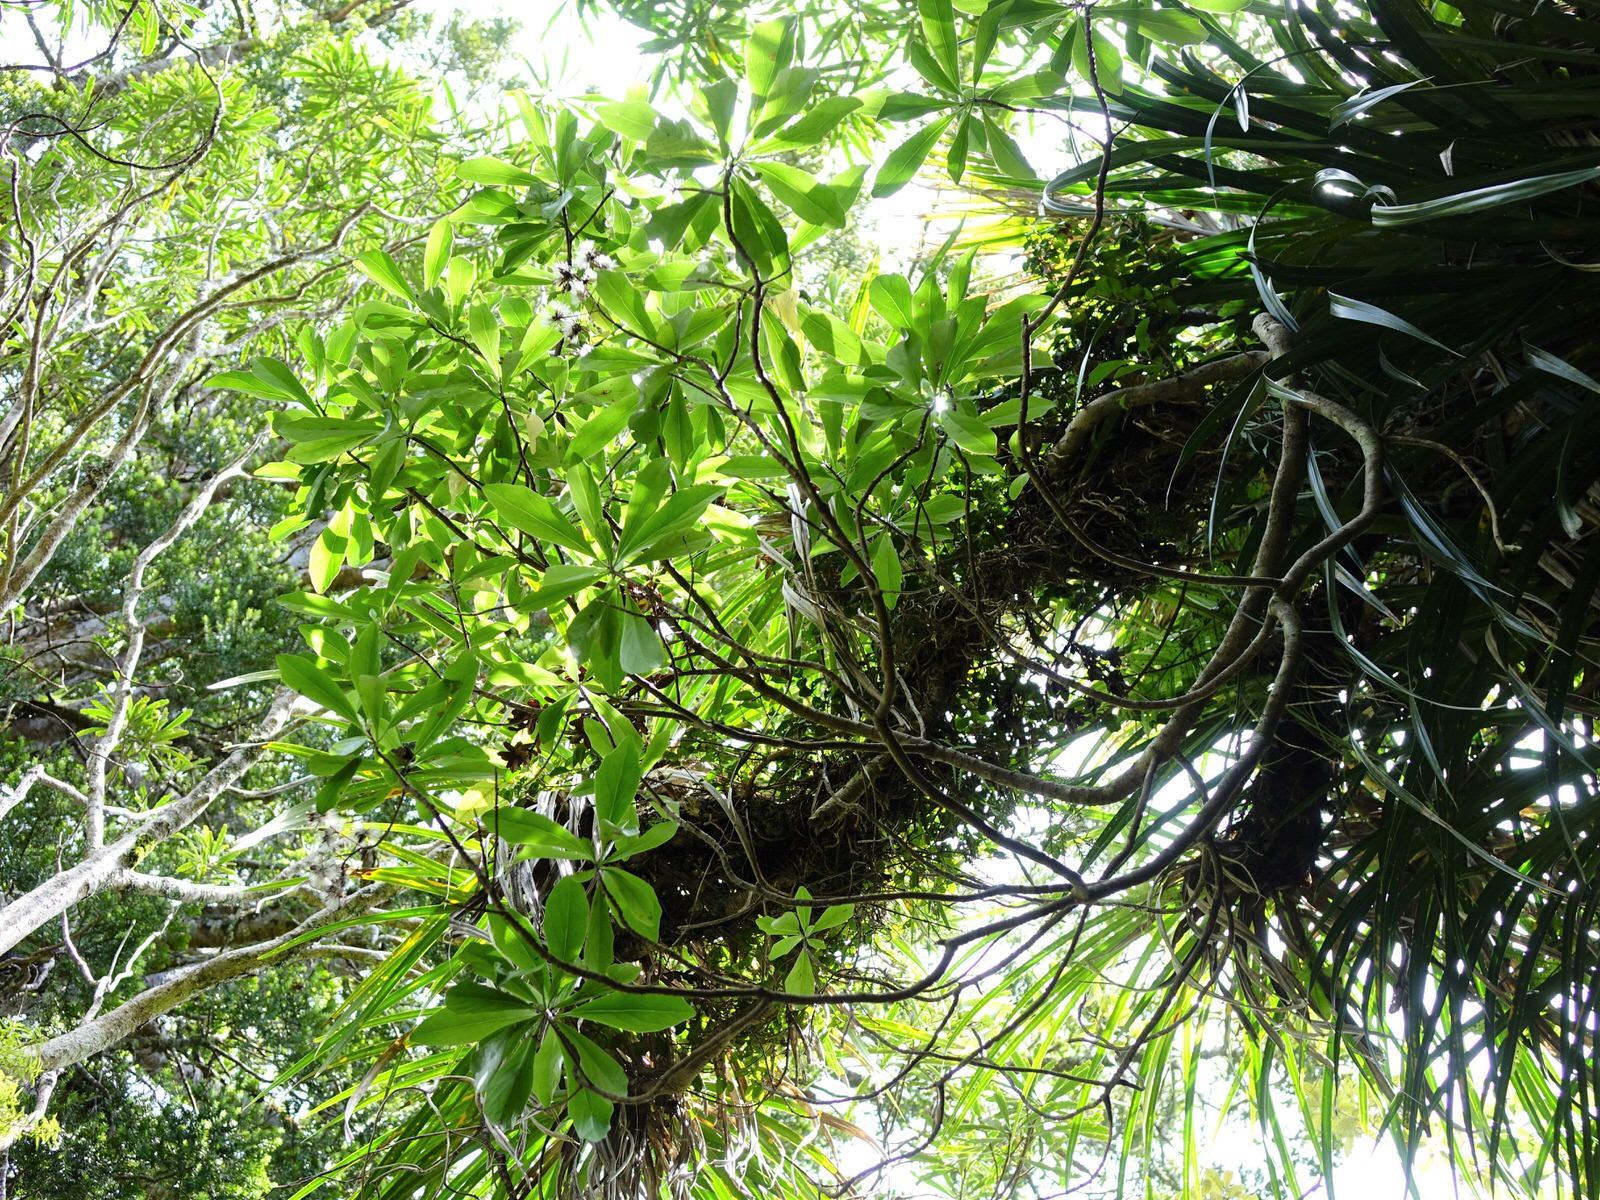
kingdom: Plantae
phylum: Tracheophyta
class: Magnoliopsida
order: Asterales
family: Asteraceae
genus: Brachyglottis
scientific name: Brachyglottis kirkii
